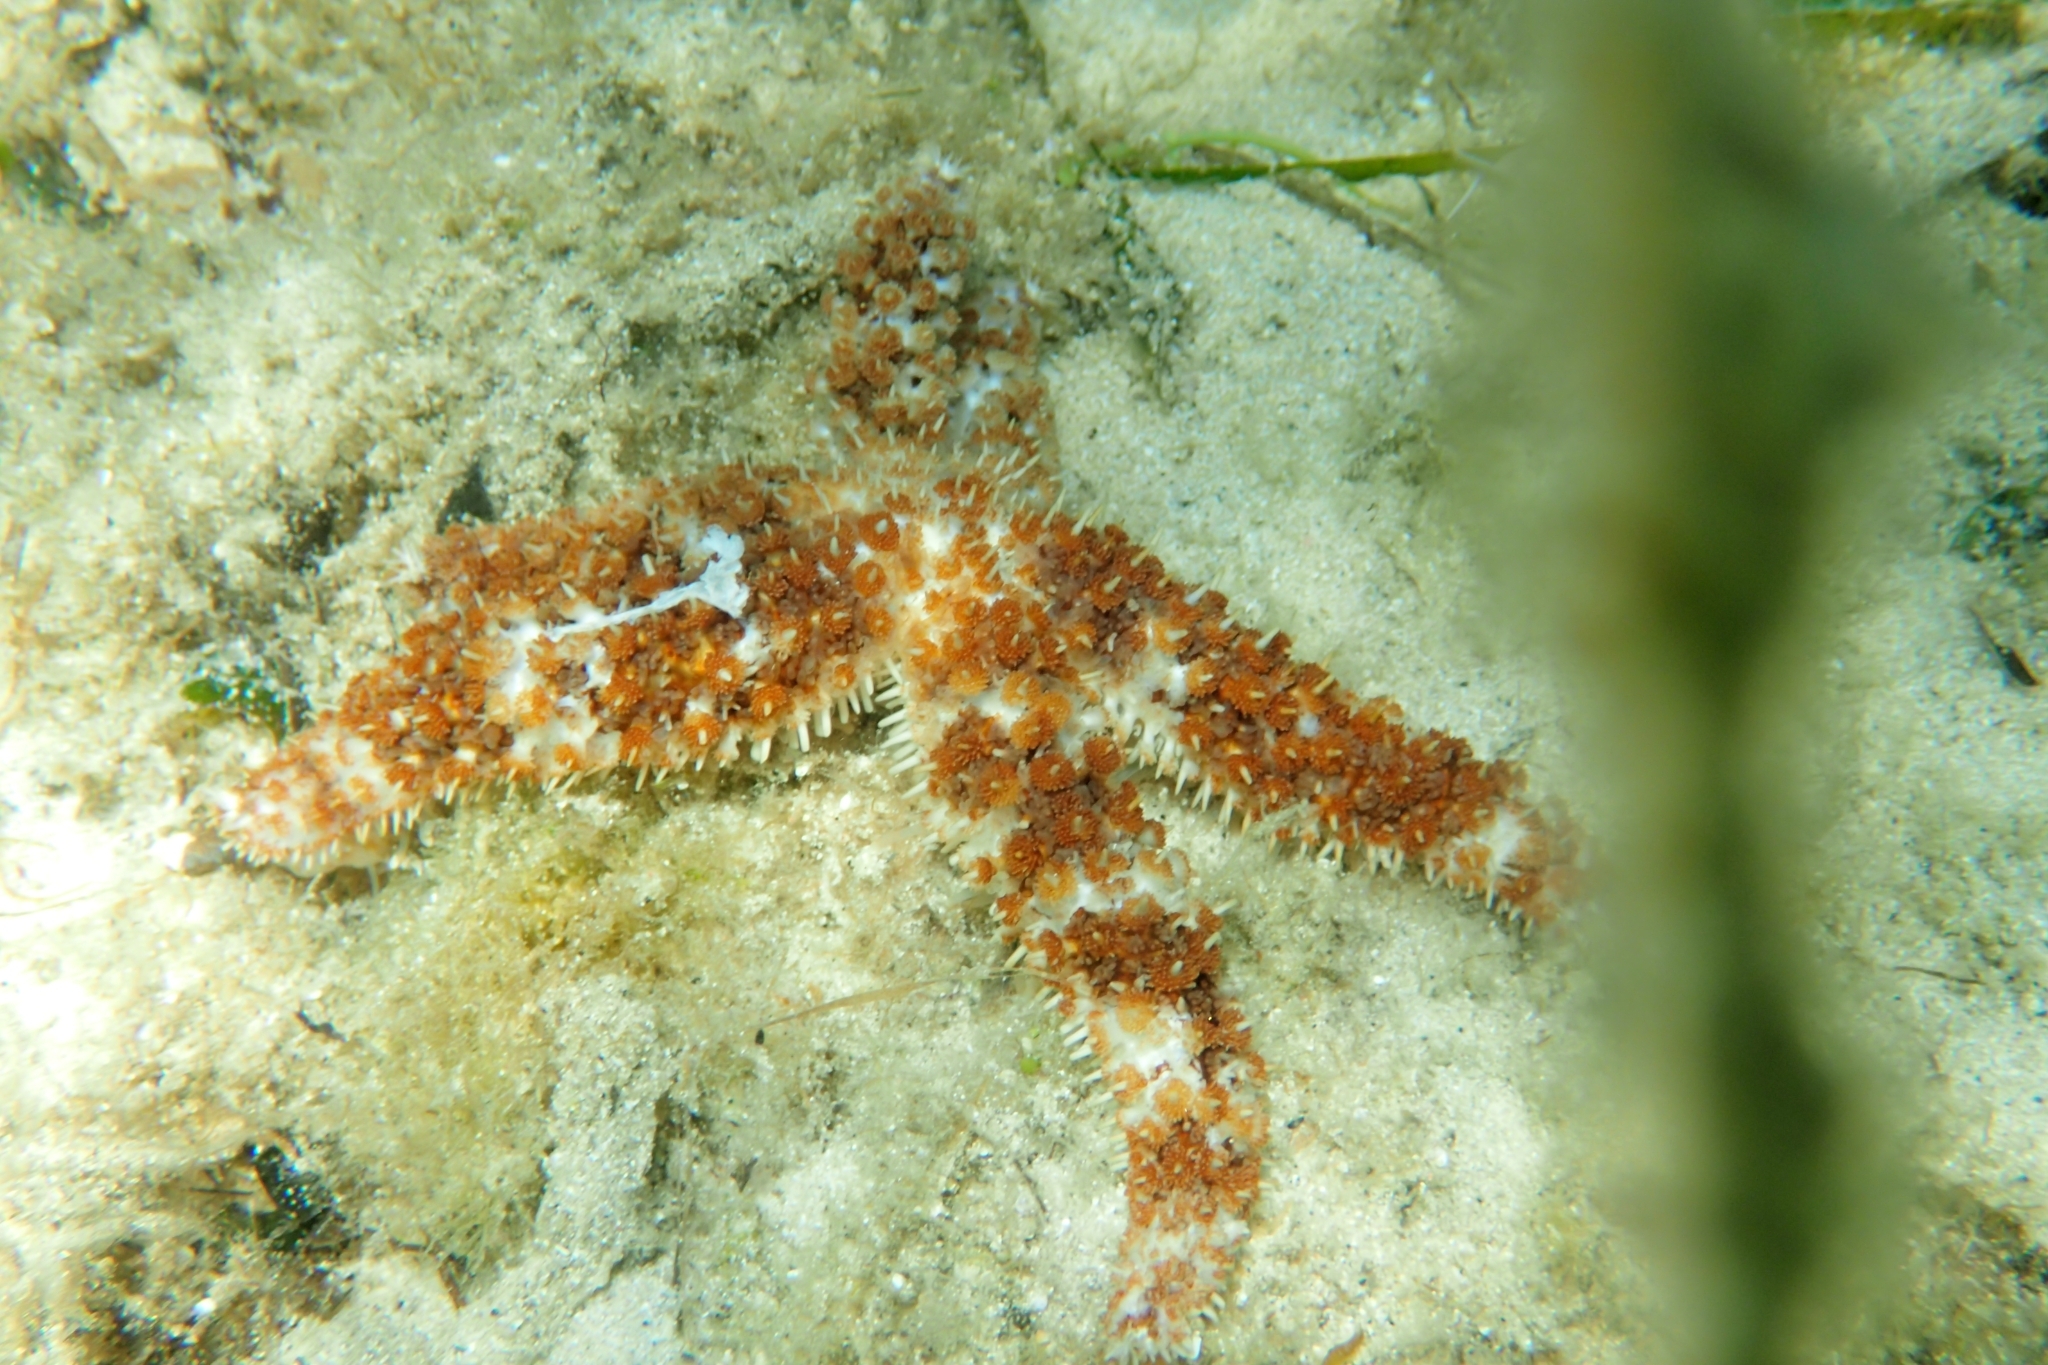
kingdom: Animalia
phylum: Echinodermata
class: Asteroidea
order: Forcipulatida
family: Asteriidae
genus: Coscinasterias
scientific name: Coscinasterias tenuispina
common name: Blue spiny starfish
